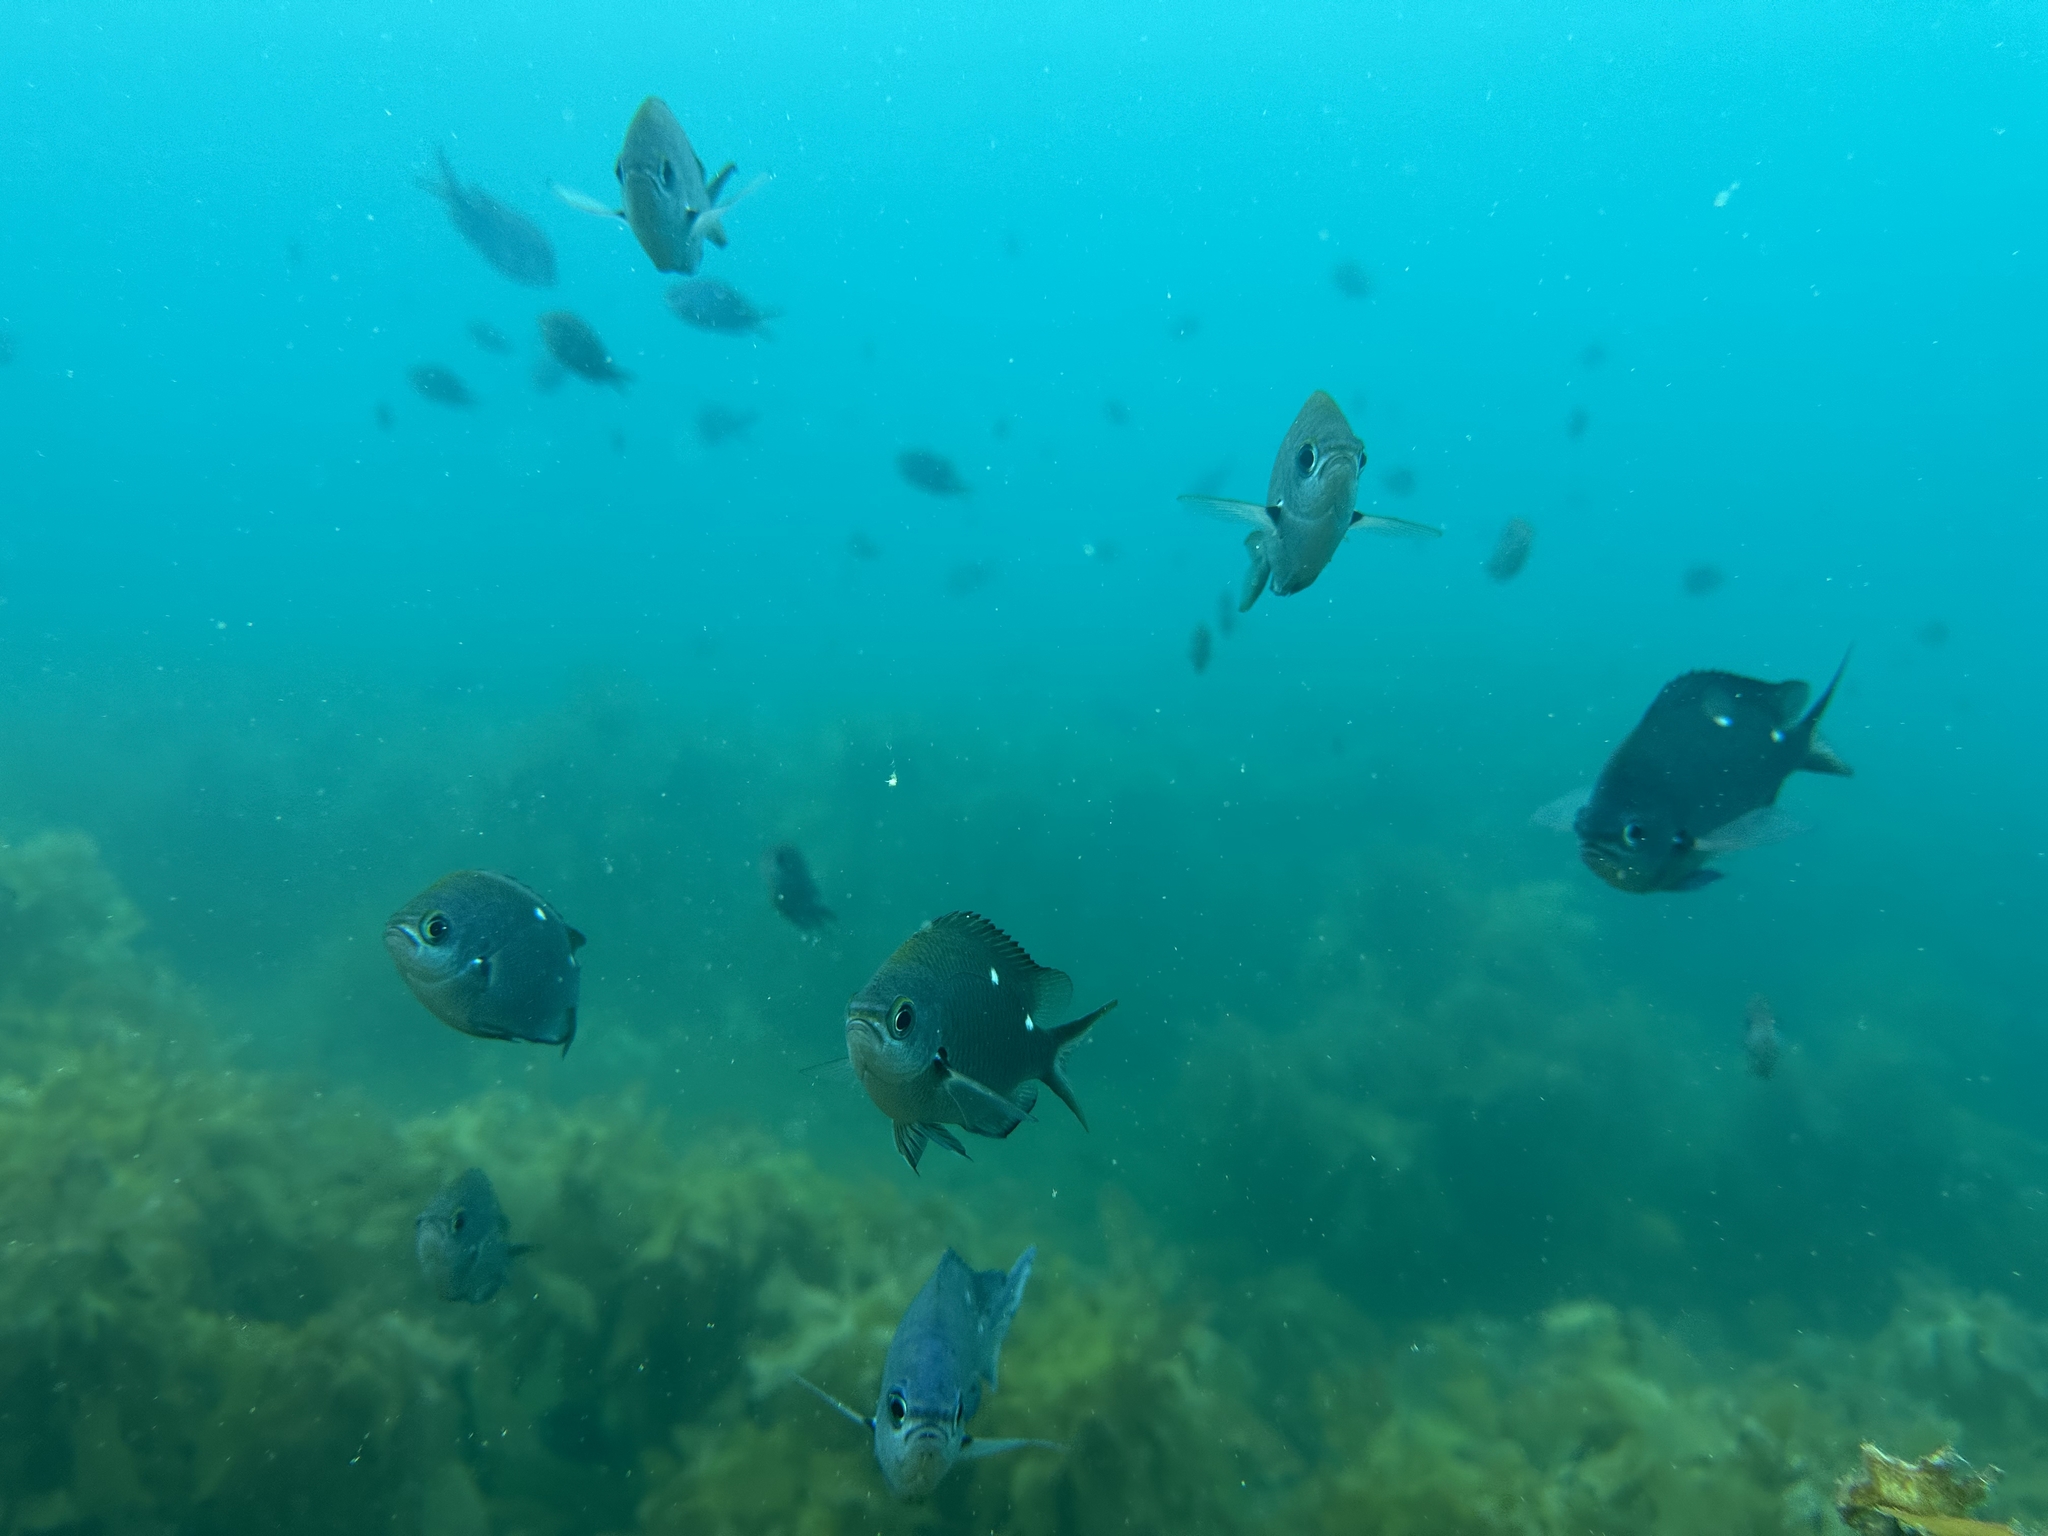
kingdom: Animalia
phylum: Chordata
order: Perciformes
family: Pomacentridae
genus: Chromis
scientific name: Chromis dispilus
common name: Demoiselle
